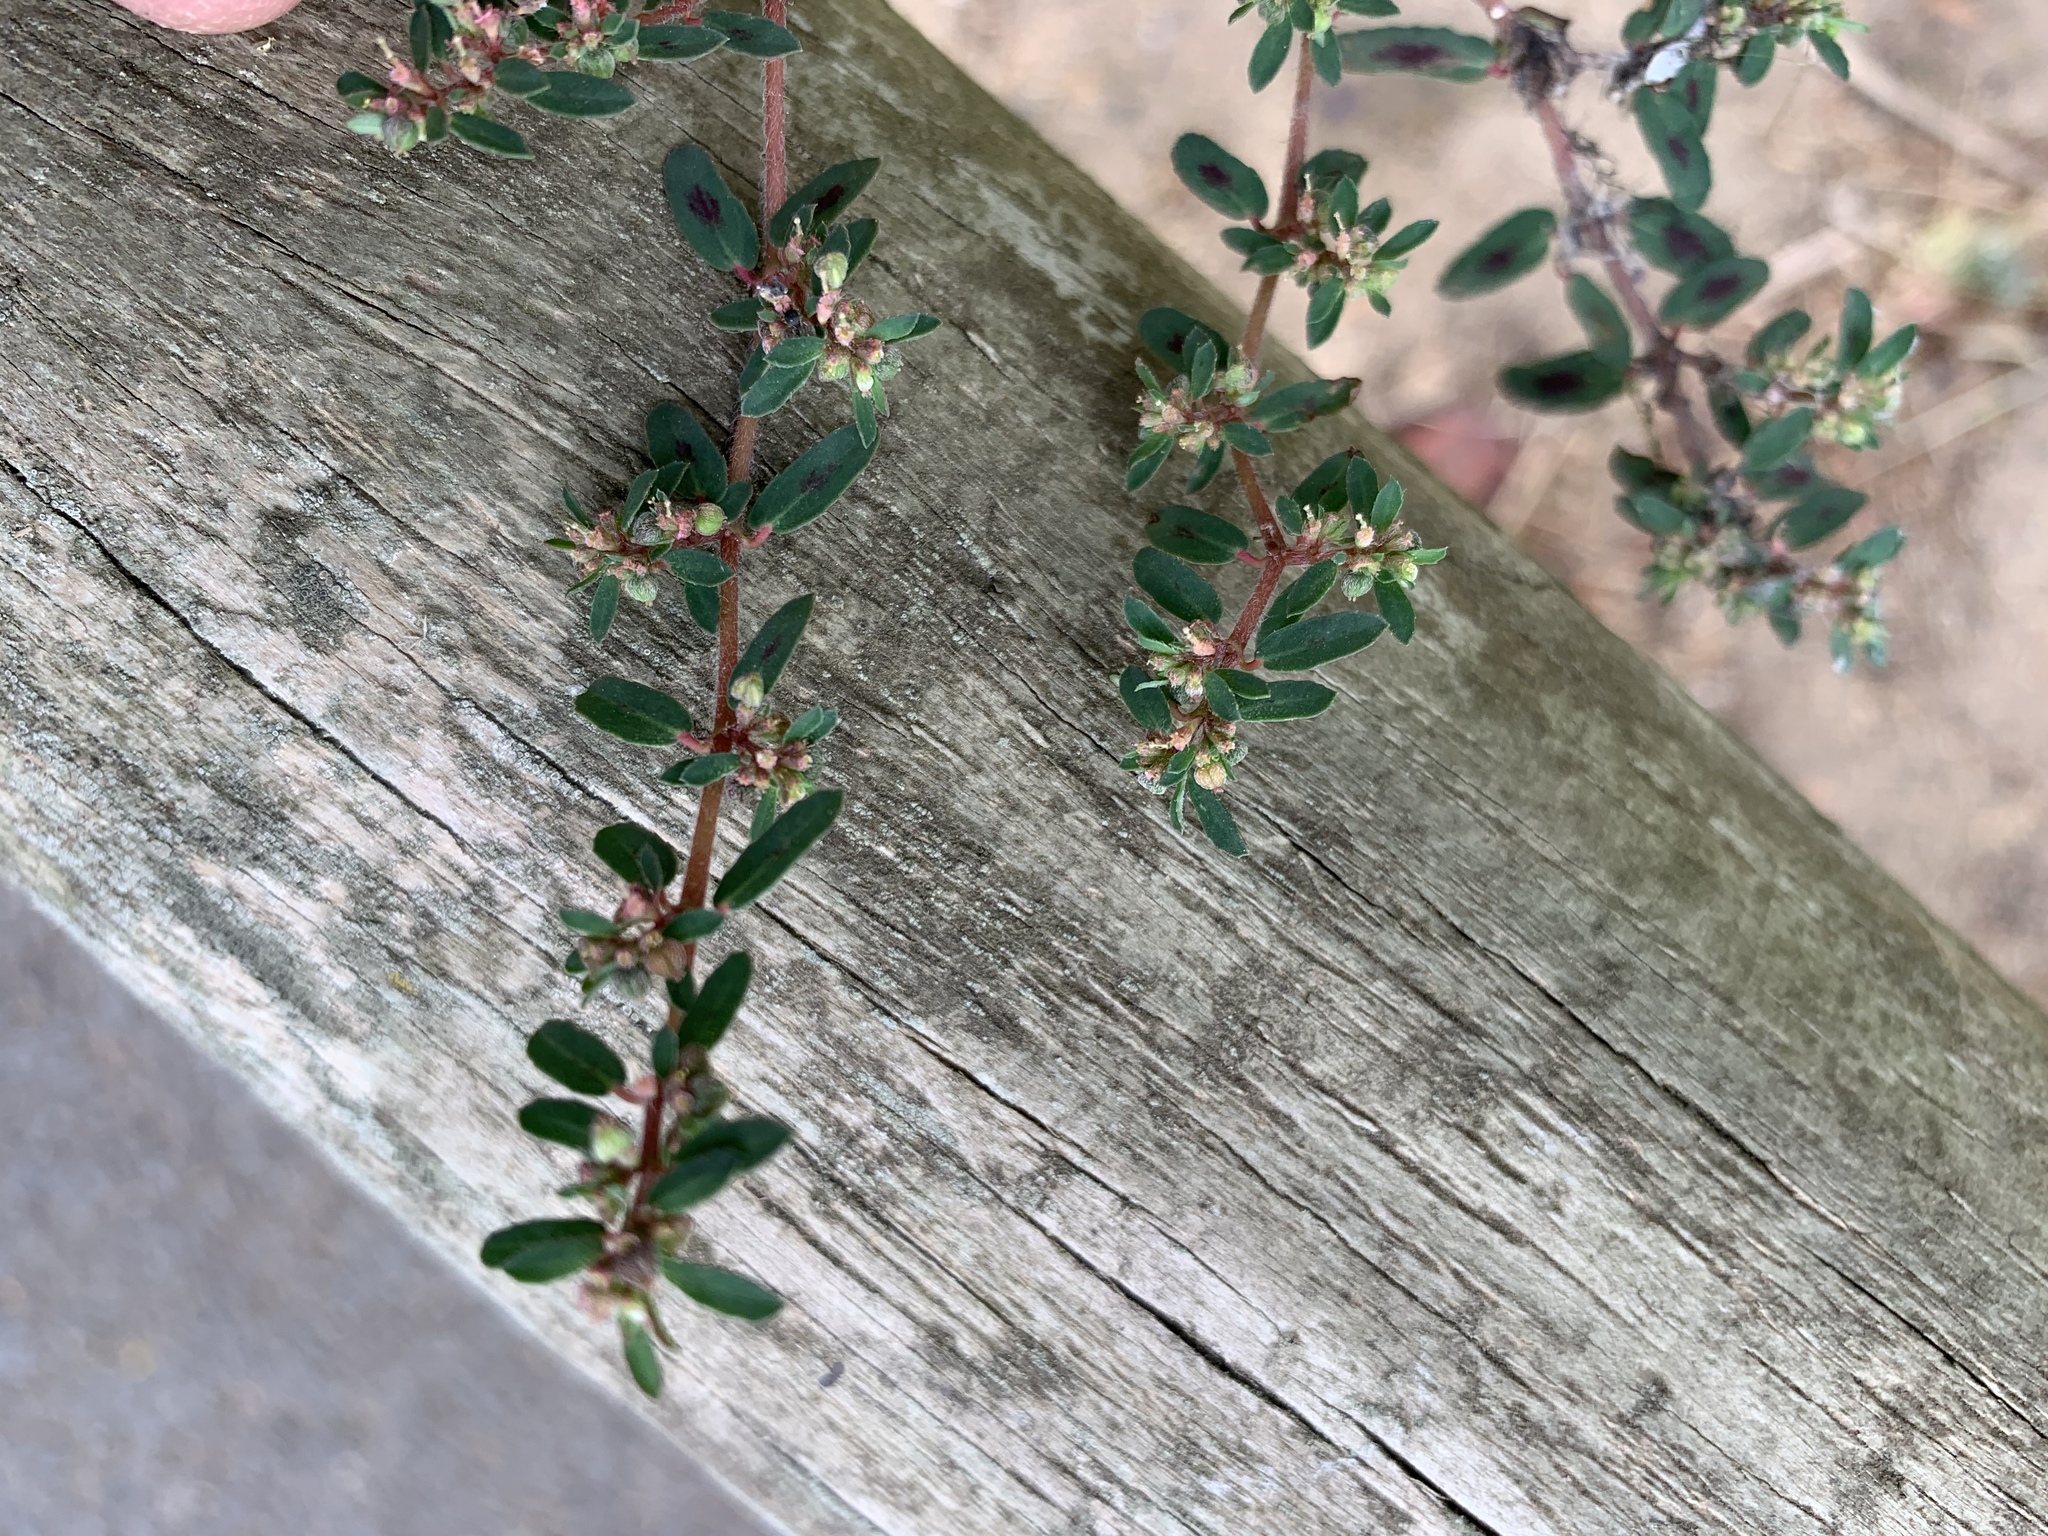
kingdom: Plantae
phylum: Tracheophyta
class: Magnoliopsida
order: Malpighiales
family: Euphorbiaceae
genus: Euphorbia
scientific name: Euphorbia maculata
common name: Spotted spurge
